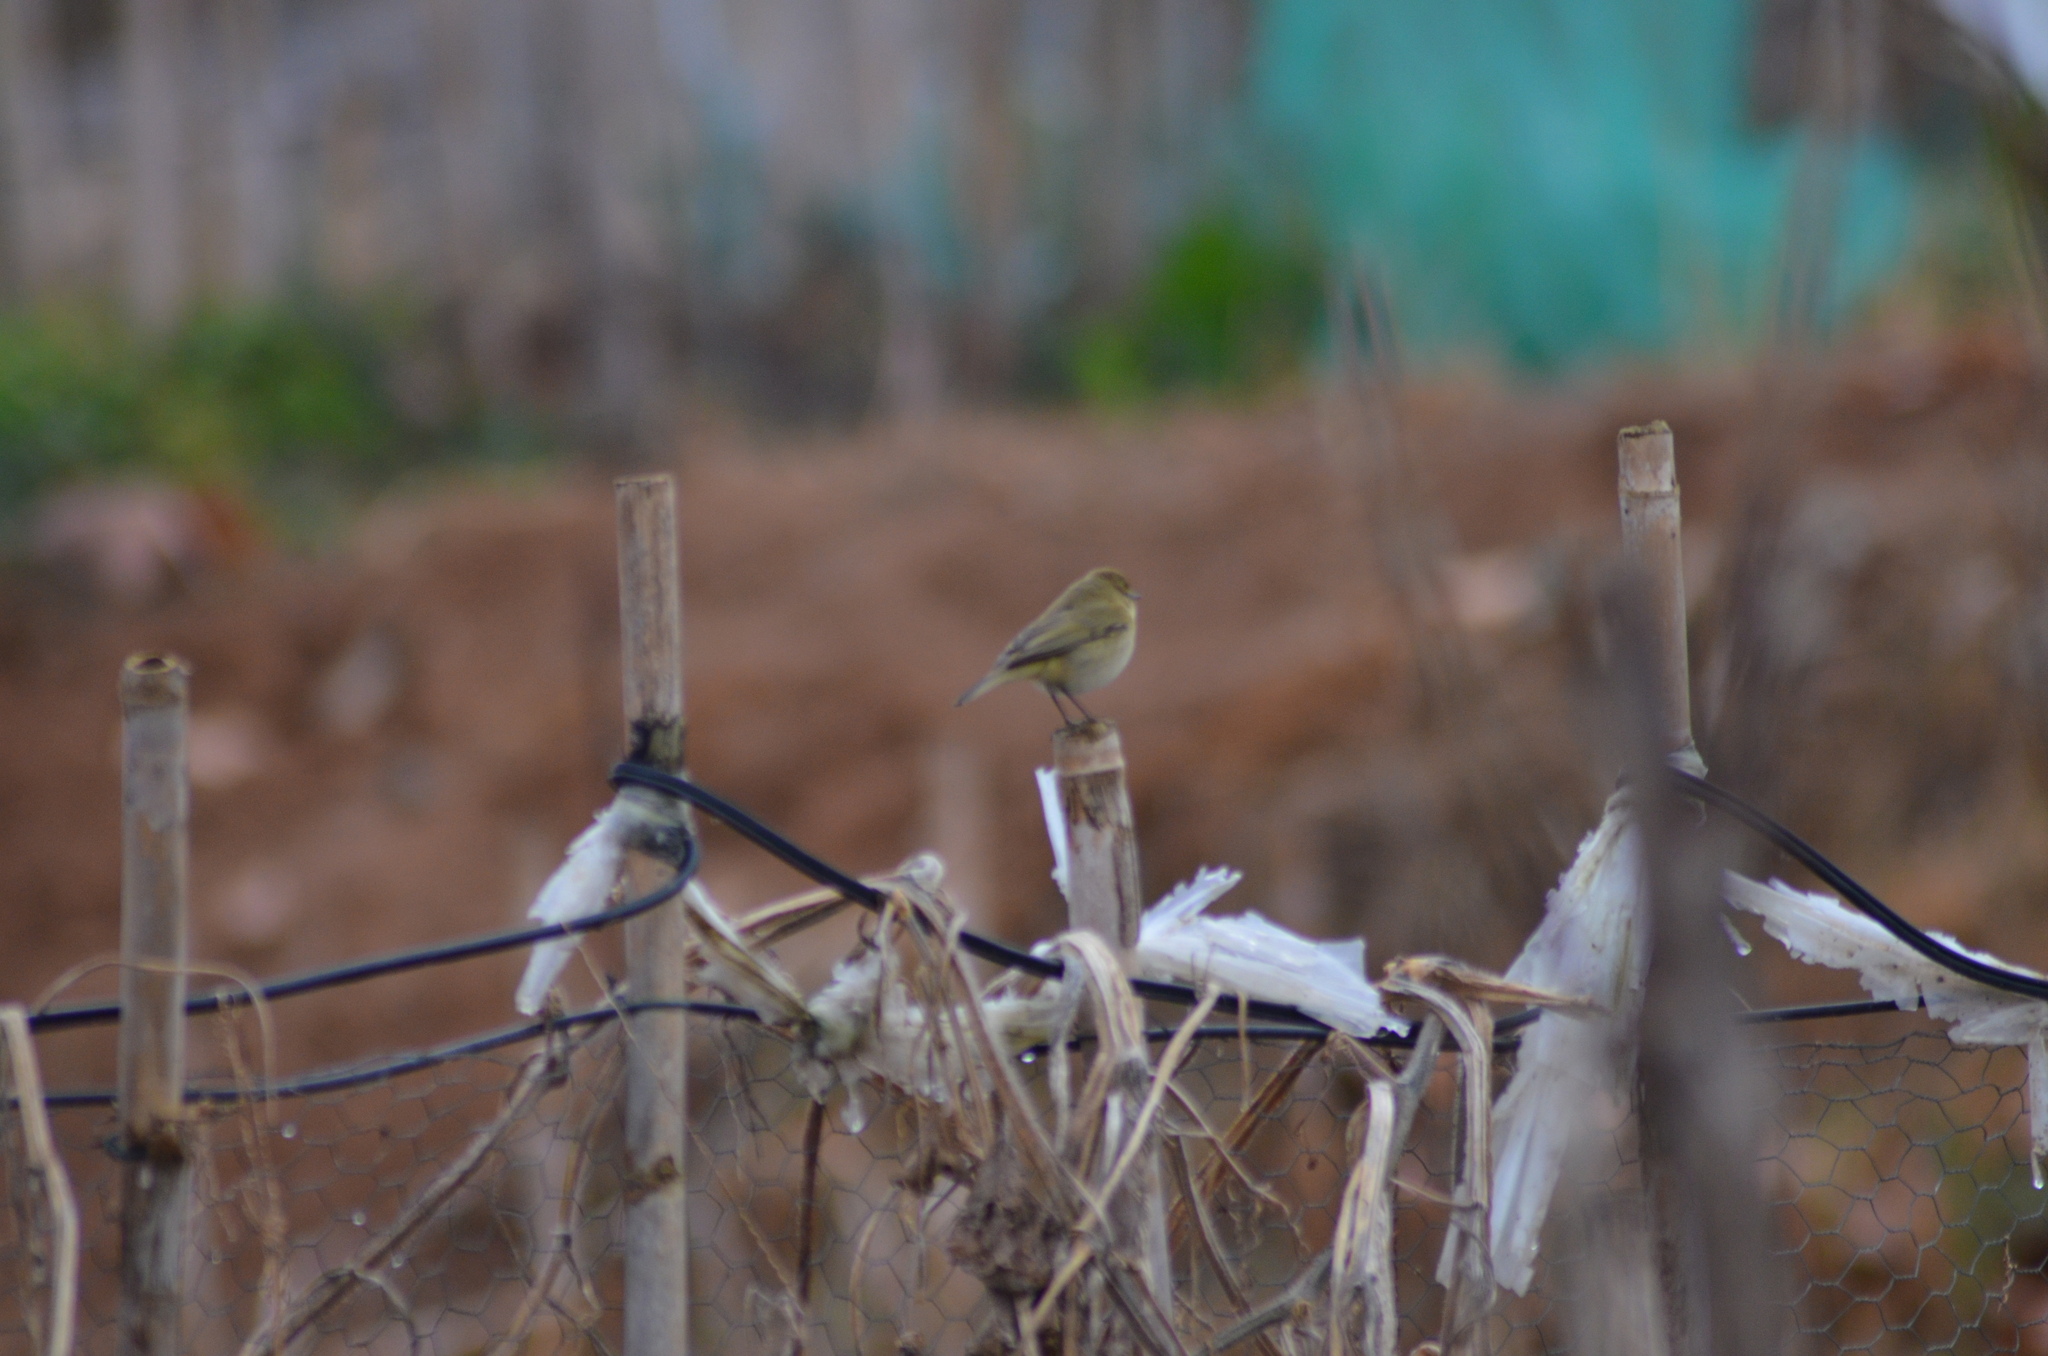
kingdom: Animalia
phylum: Chordata
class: Aves
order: Passeriformes
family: Phylloscopidae
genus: Phylloscopus
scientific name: Phylloscopus collybita
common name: Common chiffchaff
